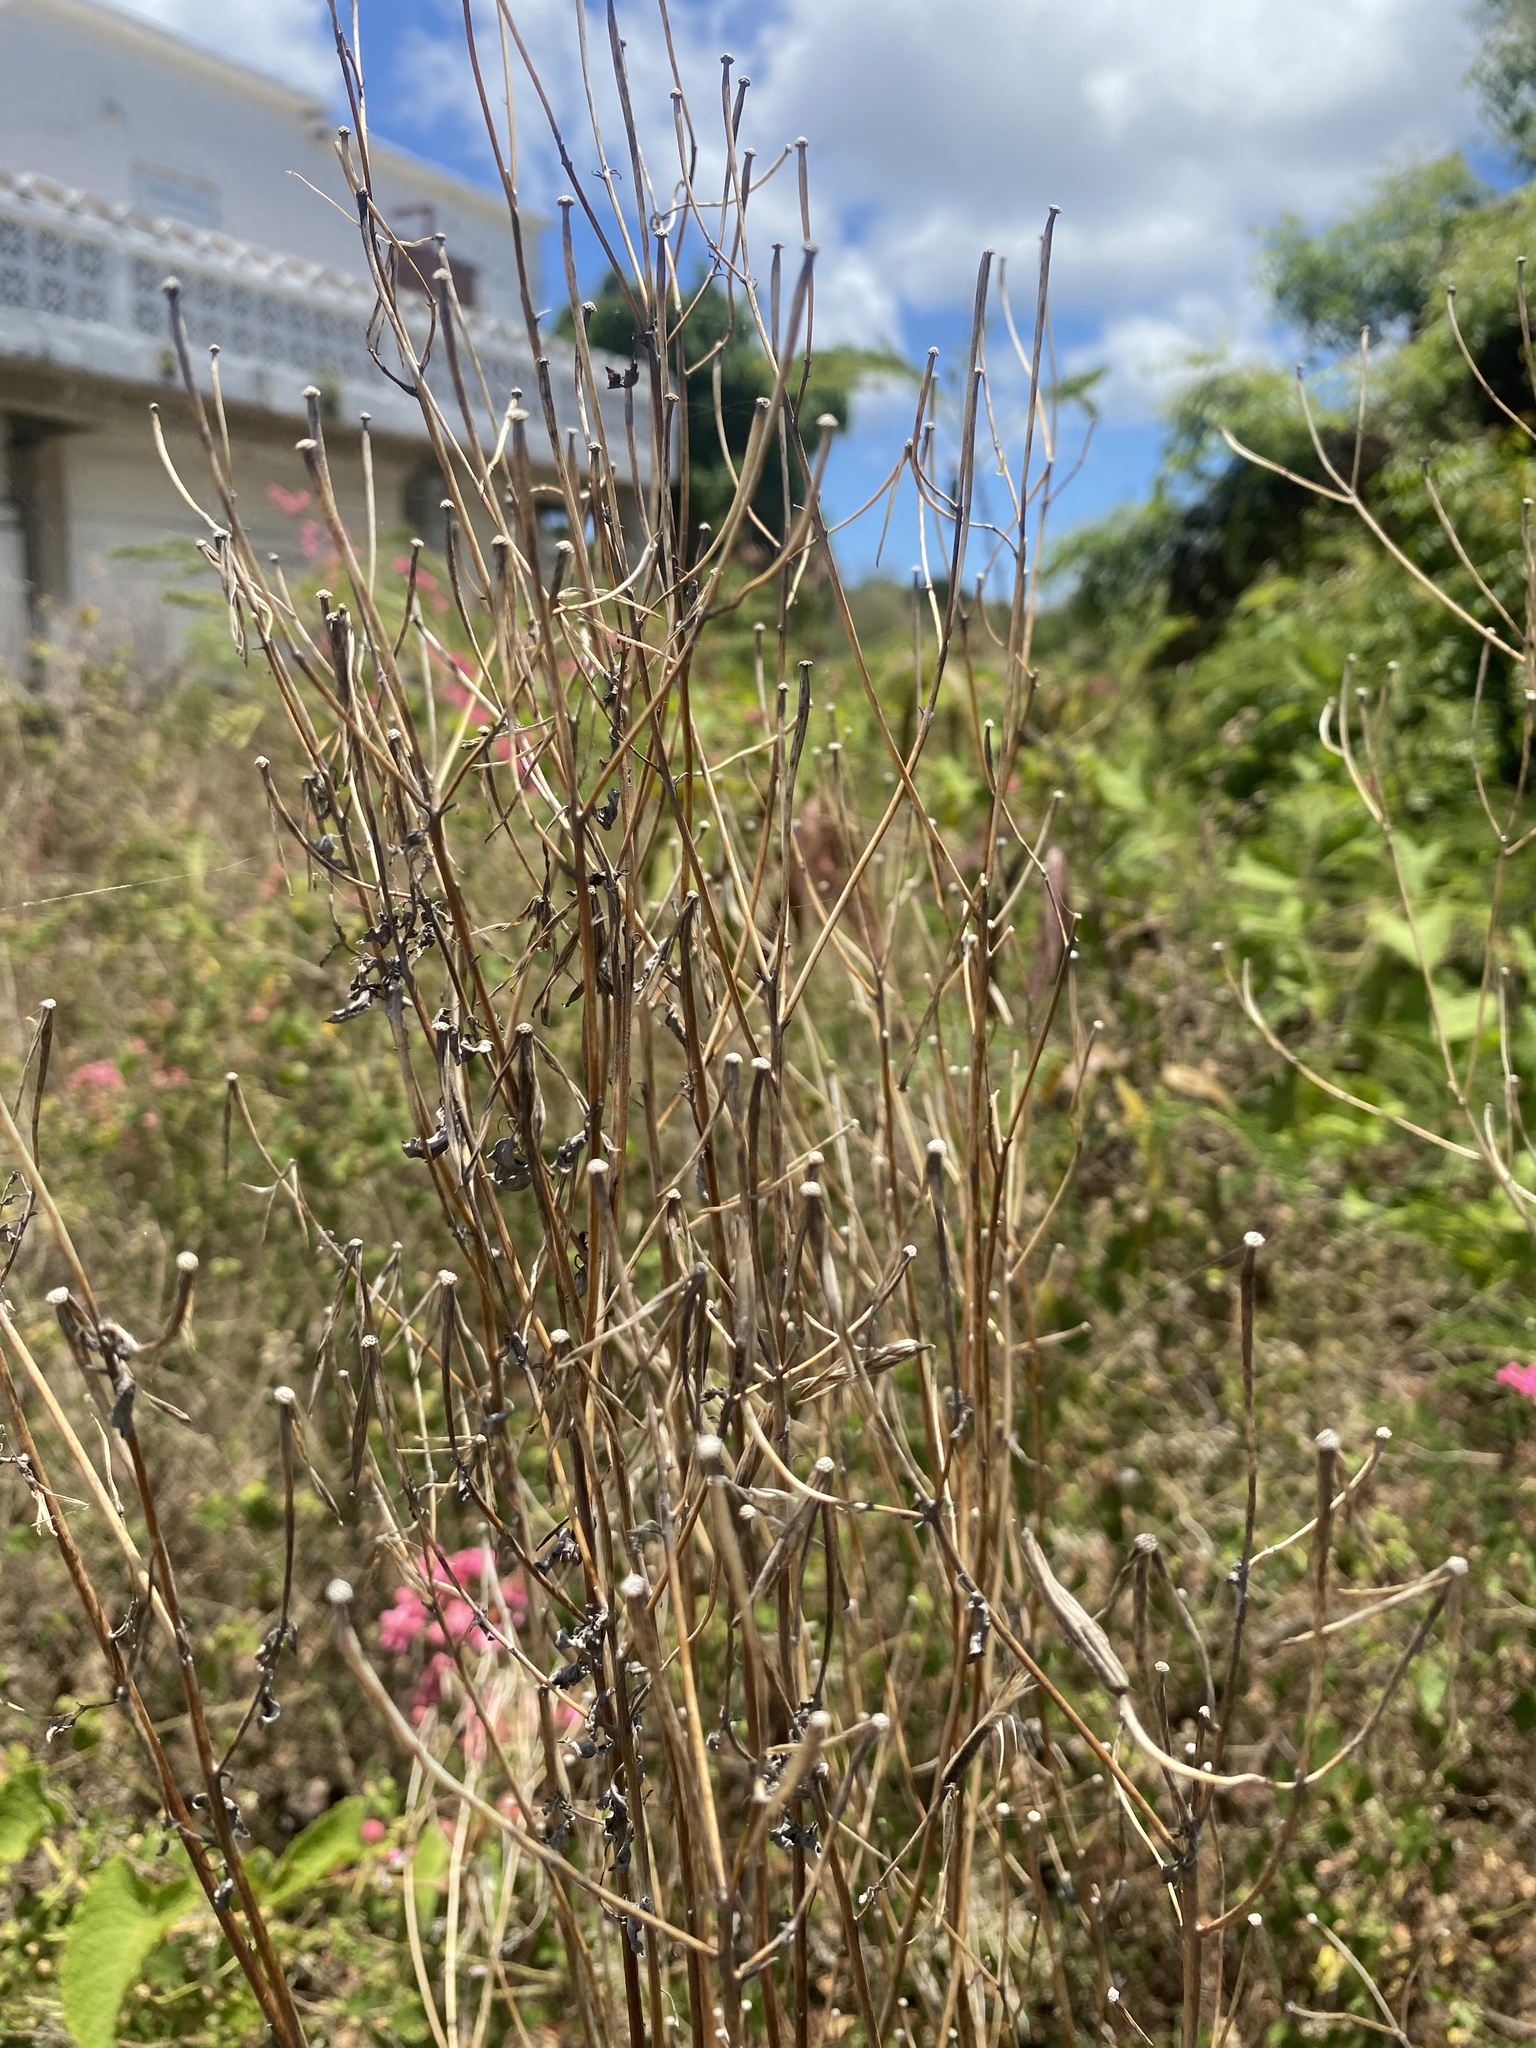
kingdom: Plantae
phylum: Tracheophyta
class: Magnoliopsida
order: Asterales
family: Asteraceae
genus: Porophyllum
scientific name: Porophyllum ruderale
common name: Yerba porosa
